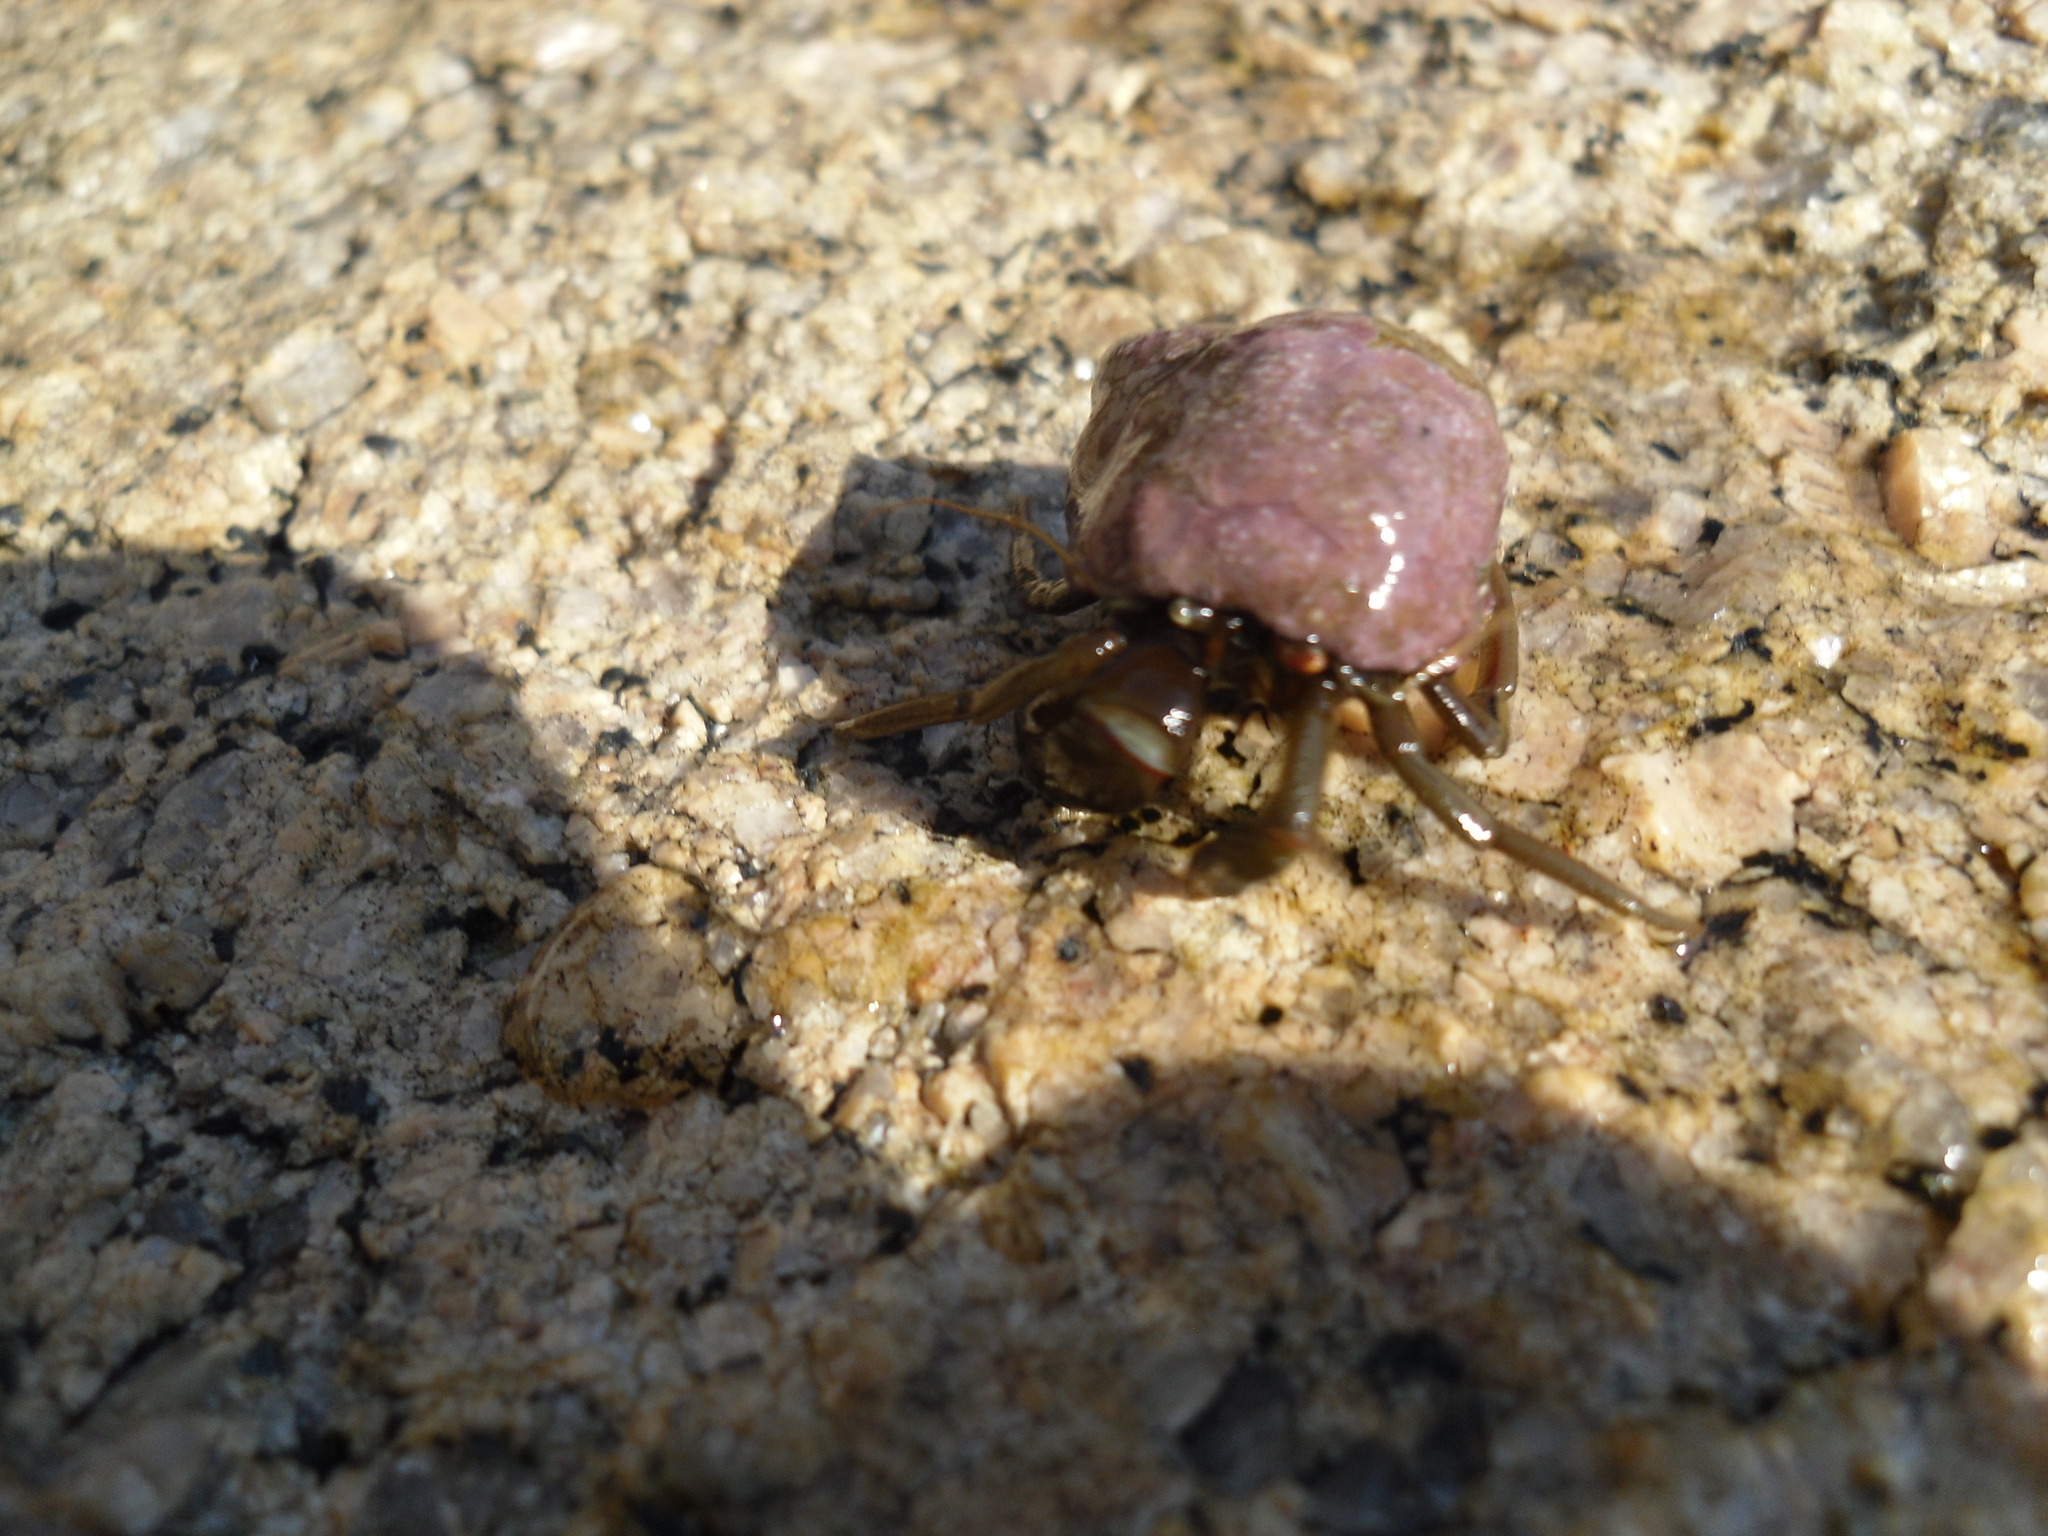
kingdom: Animalia
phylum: Arthropoda
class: Malacostraca
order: Decapoda
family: Paguridae
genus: Pagurus
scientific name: Pagurus middendorfii
